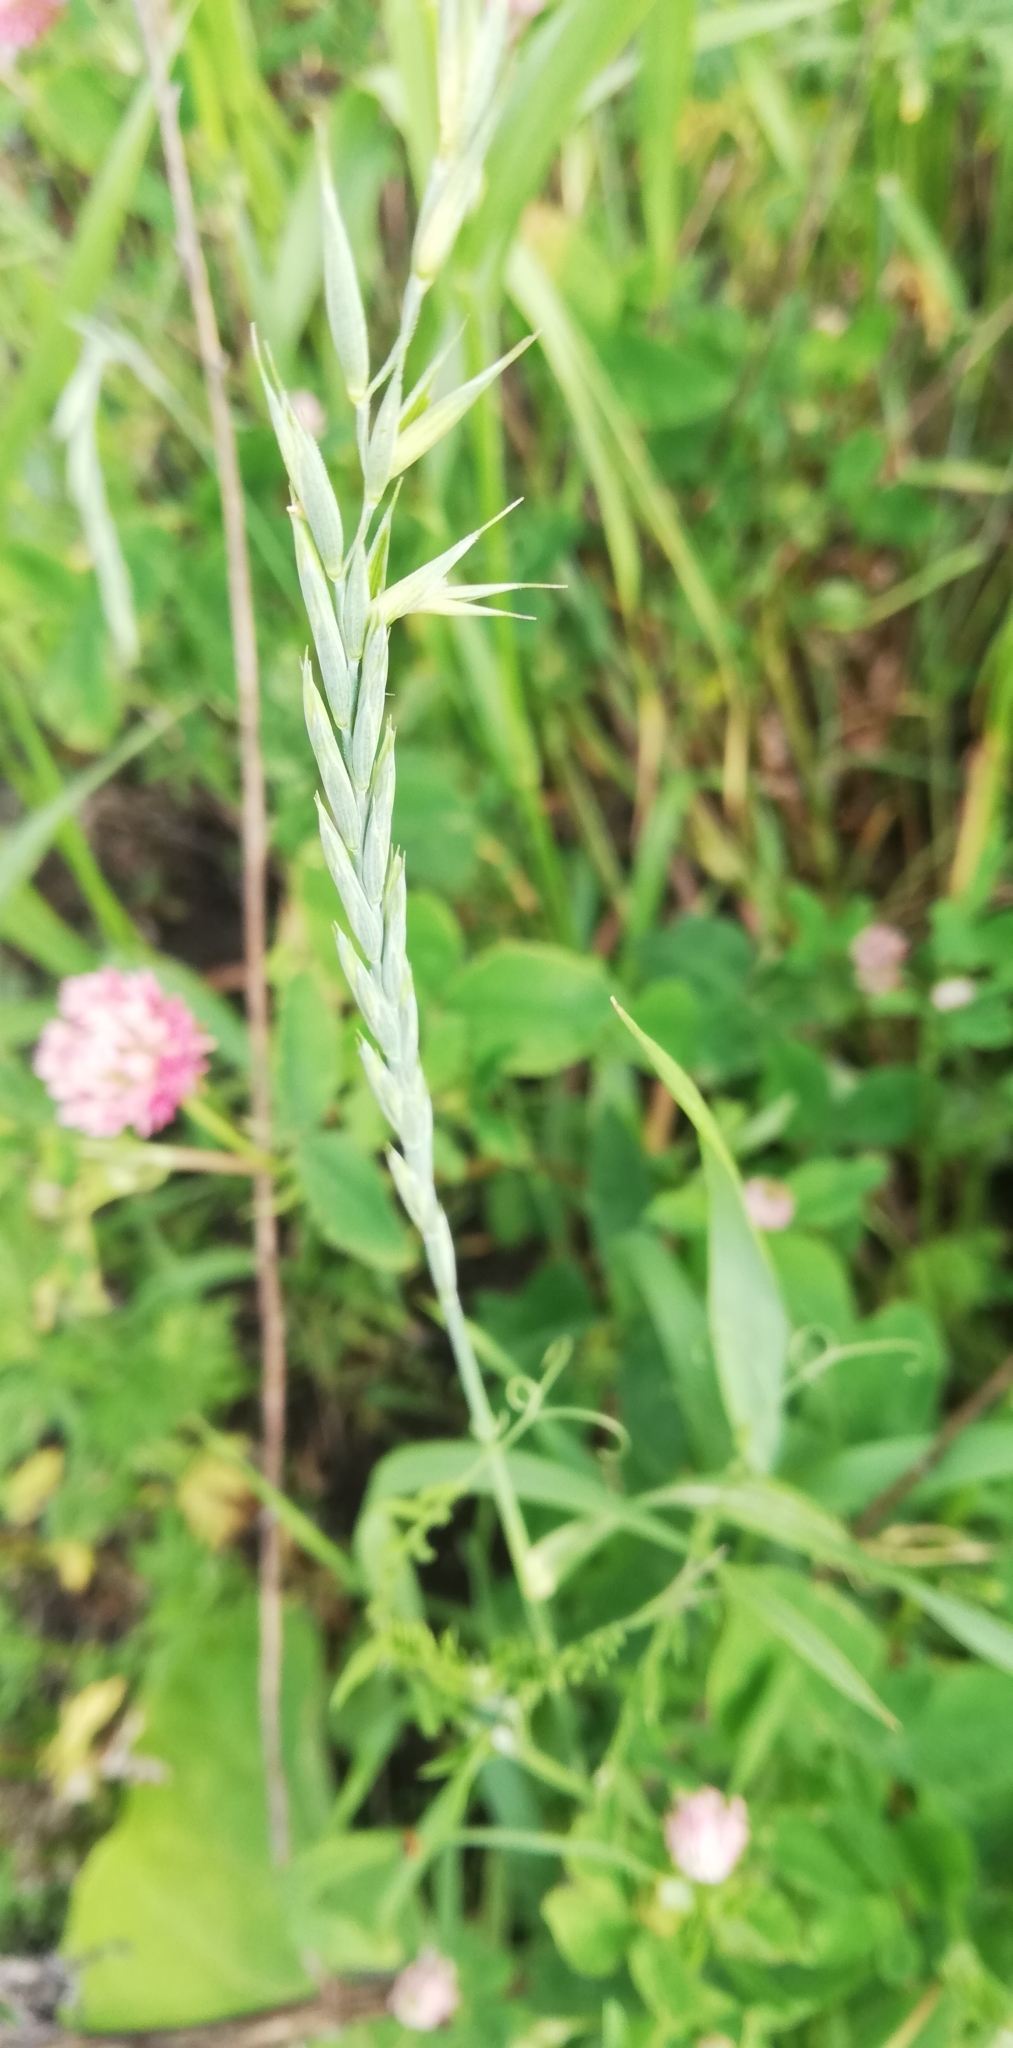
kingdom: Plantae
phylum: Tracheophyta
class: Liliopsida
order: Poales
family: Poaceae
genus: Elymus
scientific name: Elymus repens
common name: Quackgrass
